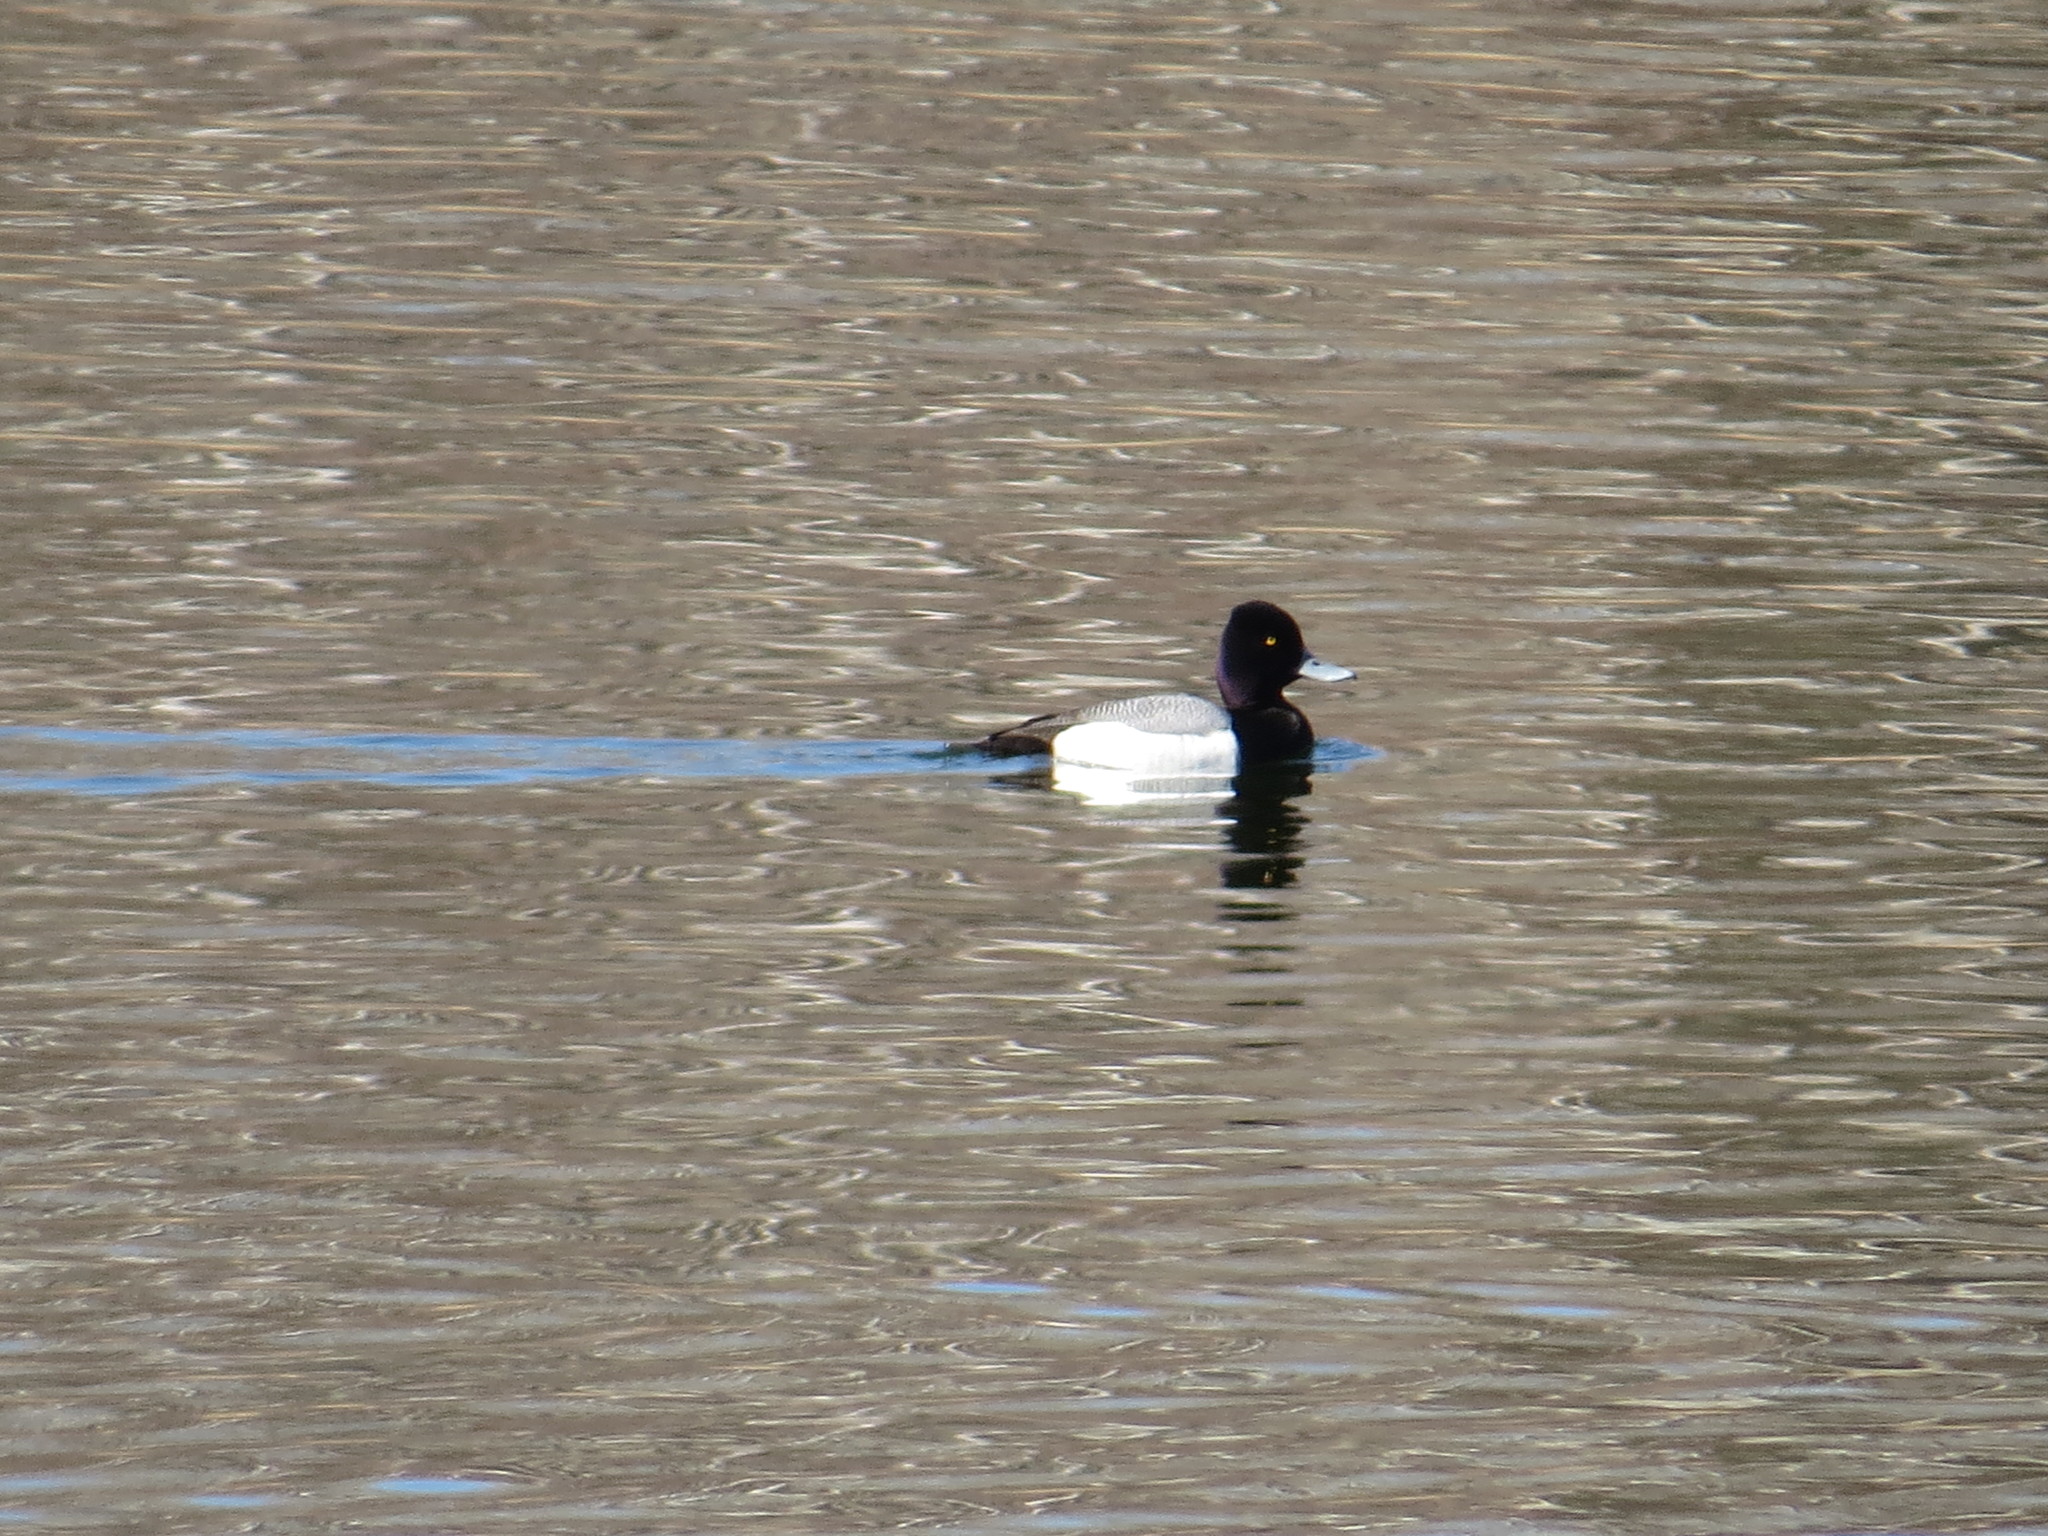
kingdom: Animalia
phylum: Chordata
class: Aves
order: Anseriformes
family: Anatidae
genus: Aythya
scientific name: Aythya affinis
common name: Lesser scaup
